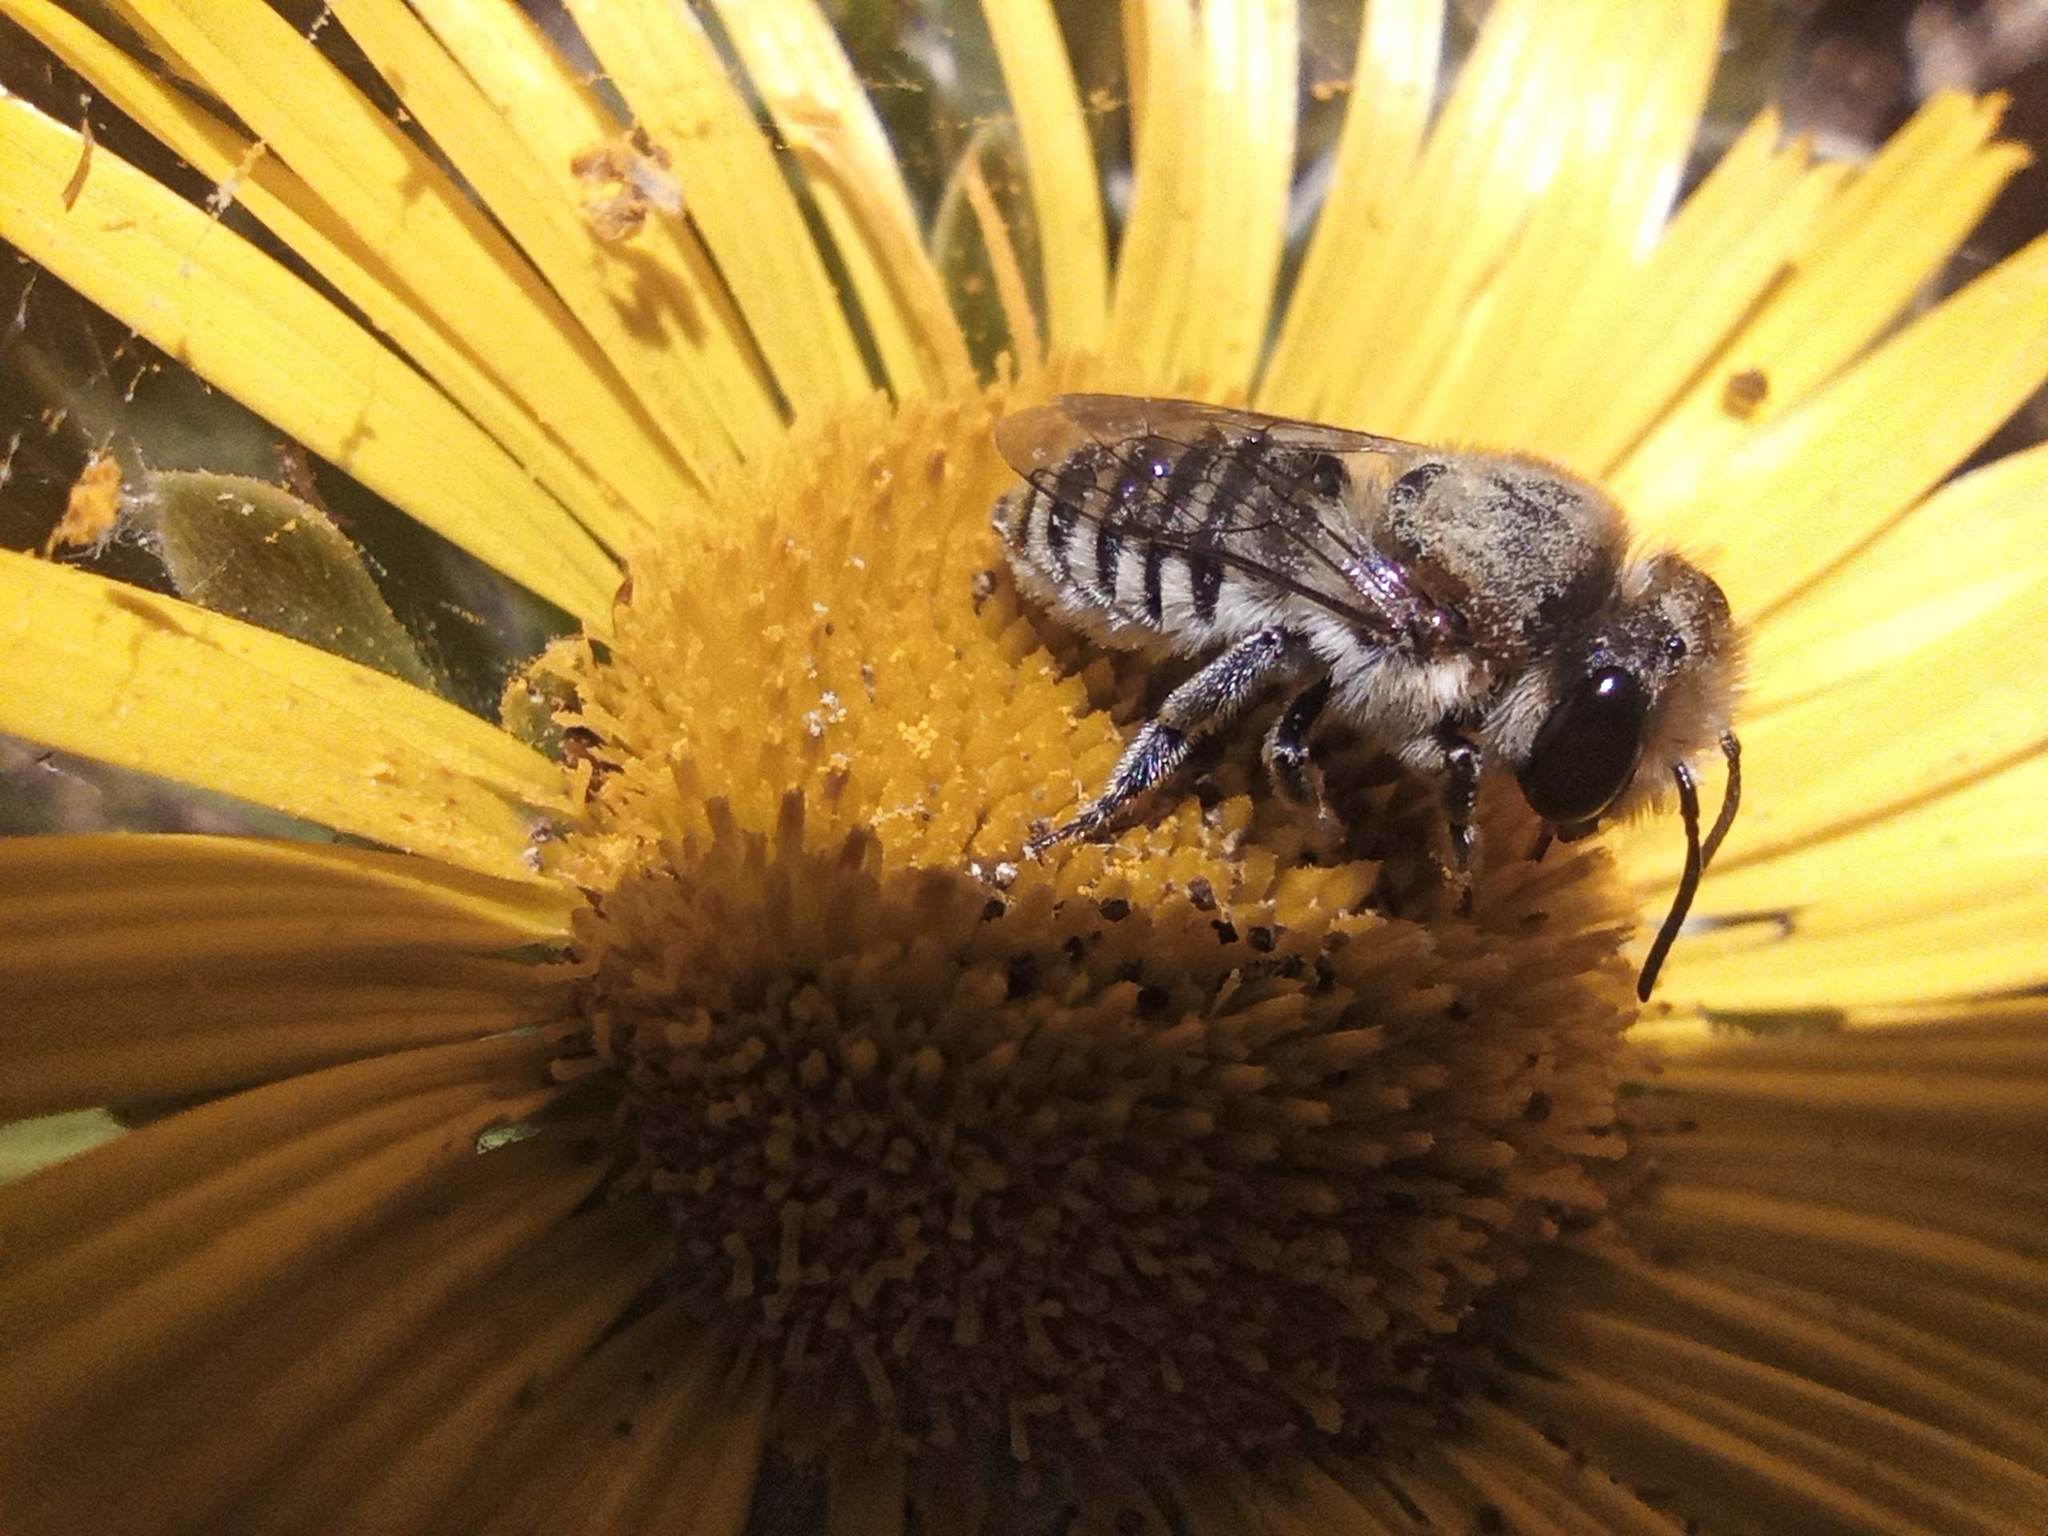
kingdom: Animalia
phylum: Arthropoda
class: Insecta
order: Hymenoptera
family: Megachilidae
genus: Megachile
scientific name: Megachile binominata
